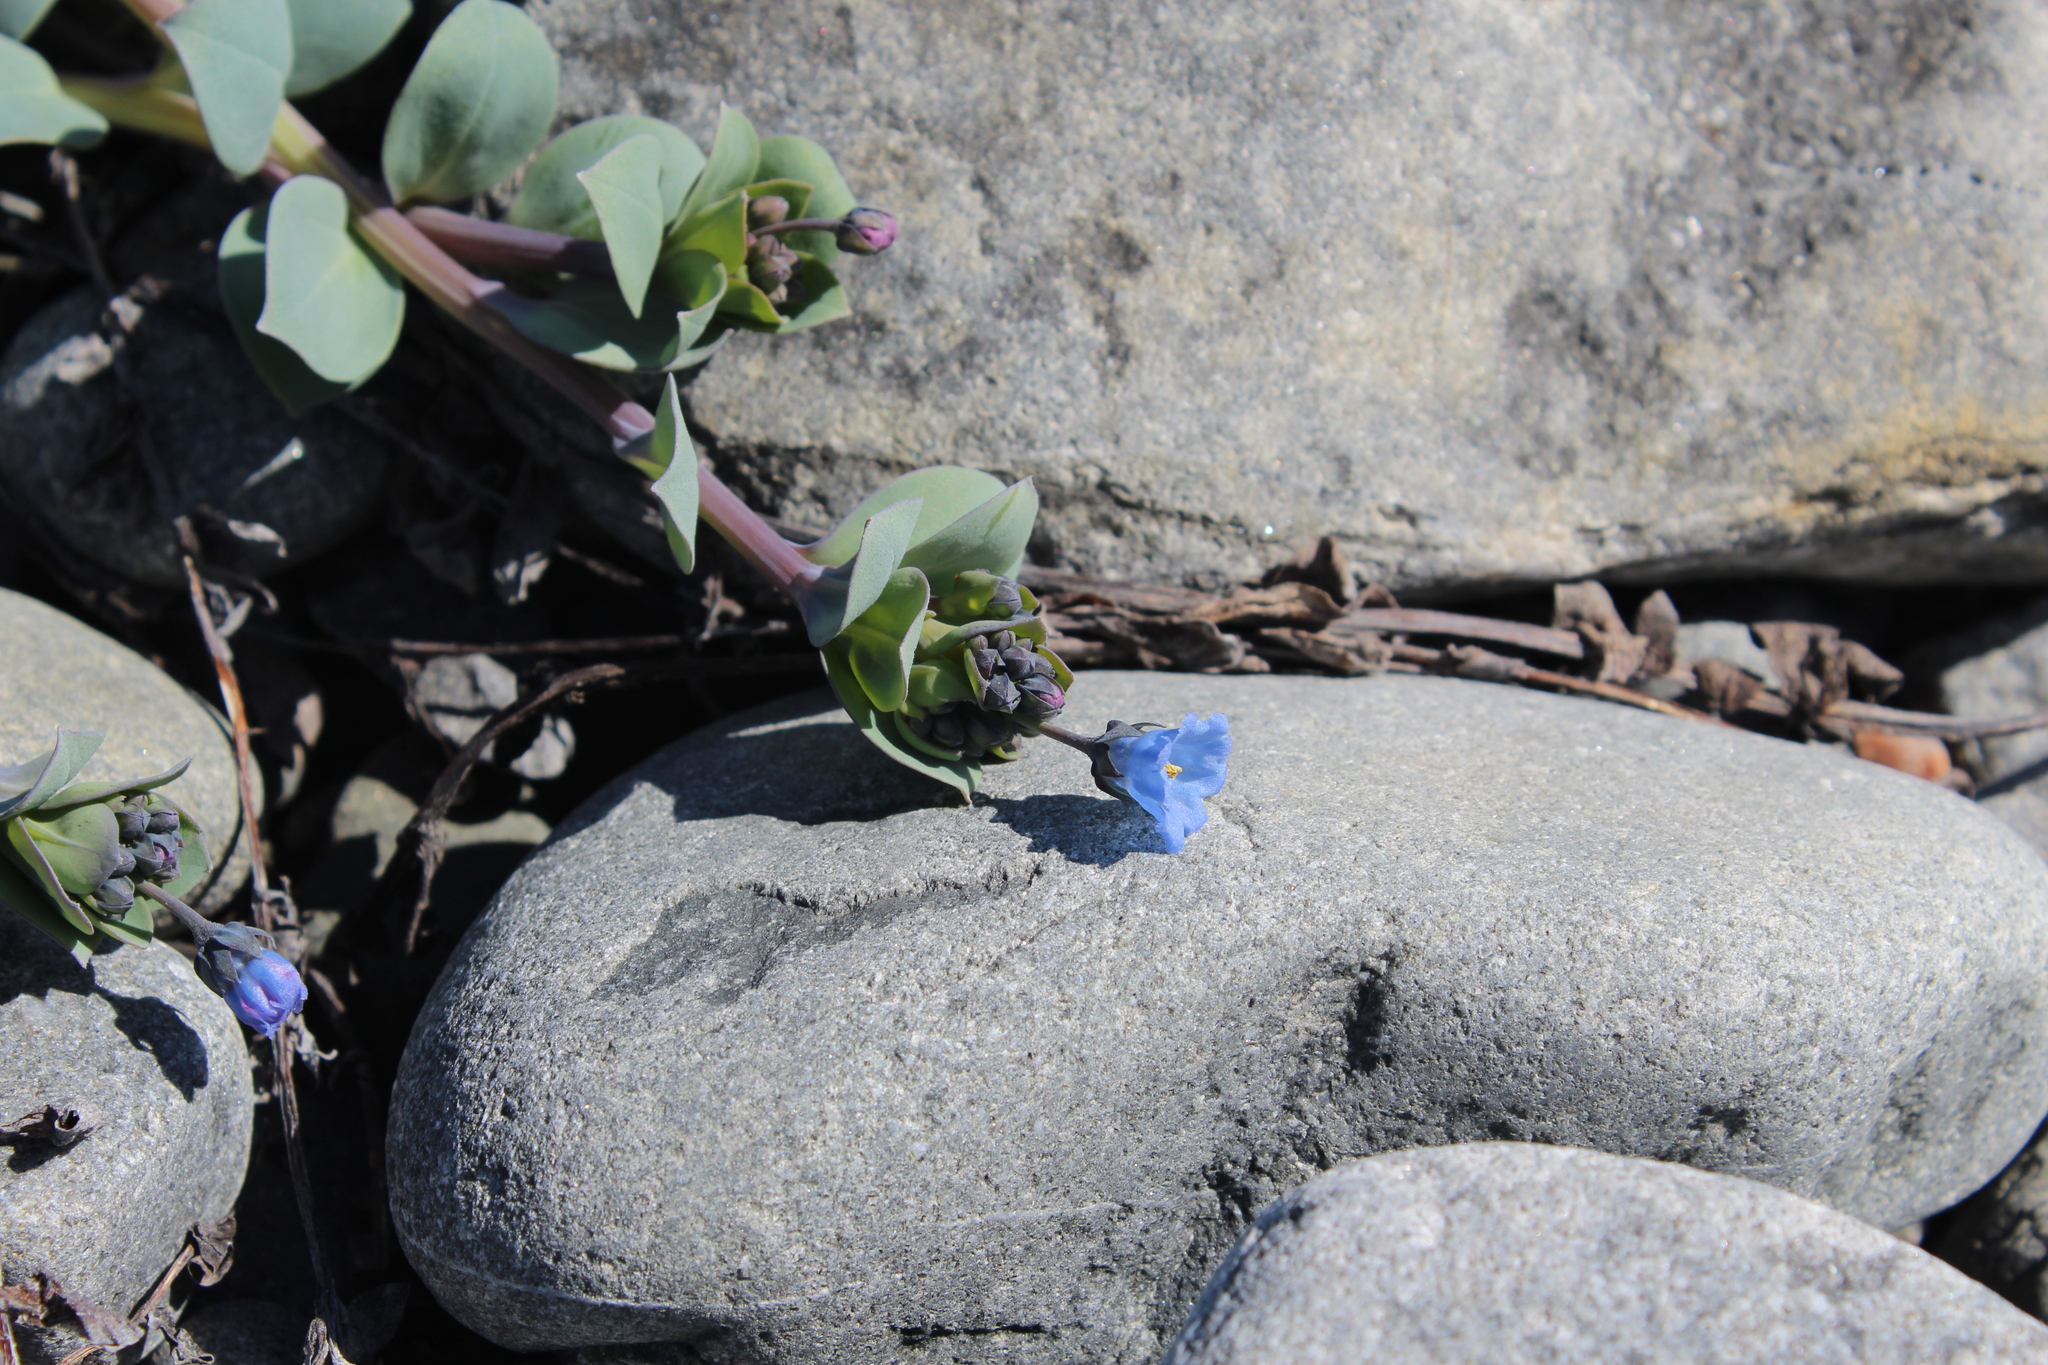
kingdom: Plantae
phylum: Tracheophyta
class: Magnoliopsida
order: Boraginales
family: Boraginaceae
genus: Mertensia
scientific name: Mertensia maritima
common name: Oysterplant
